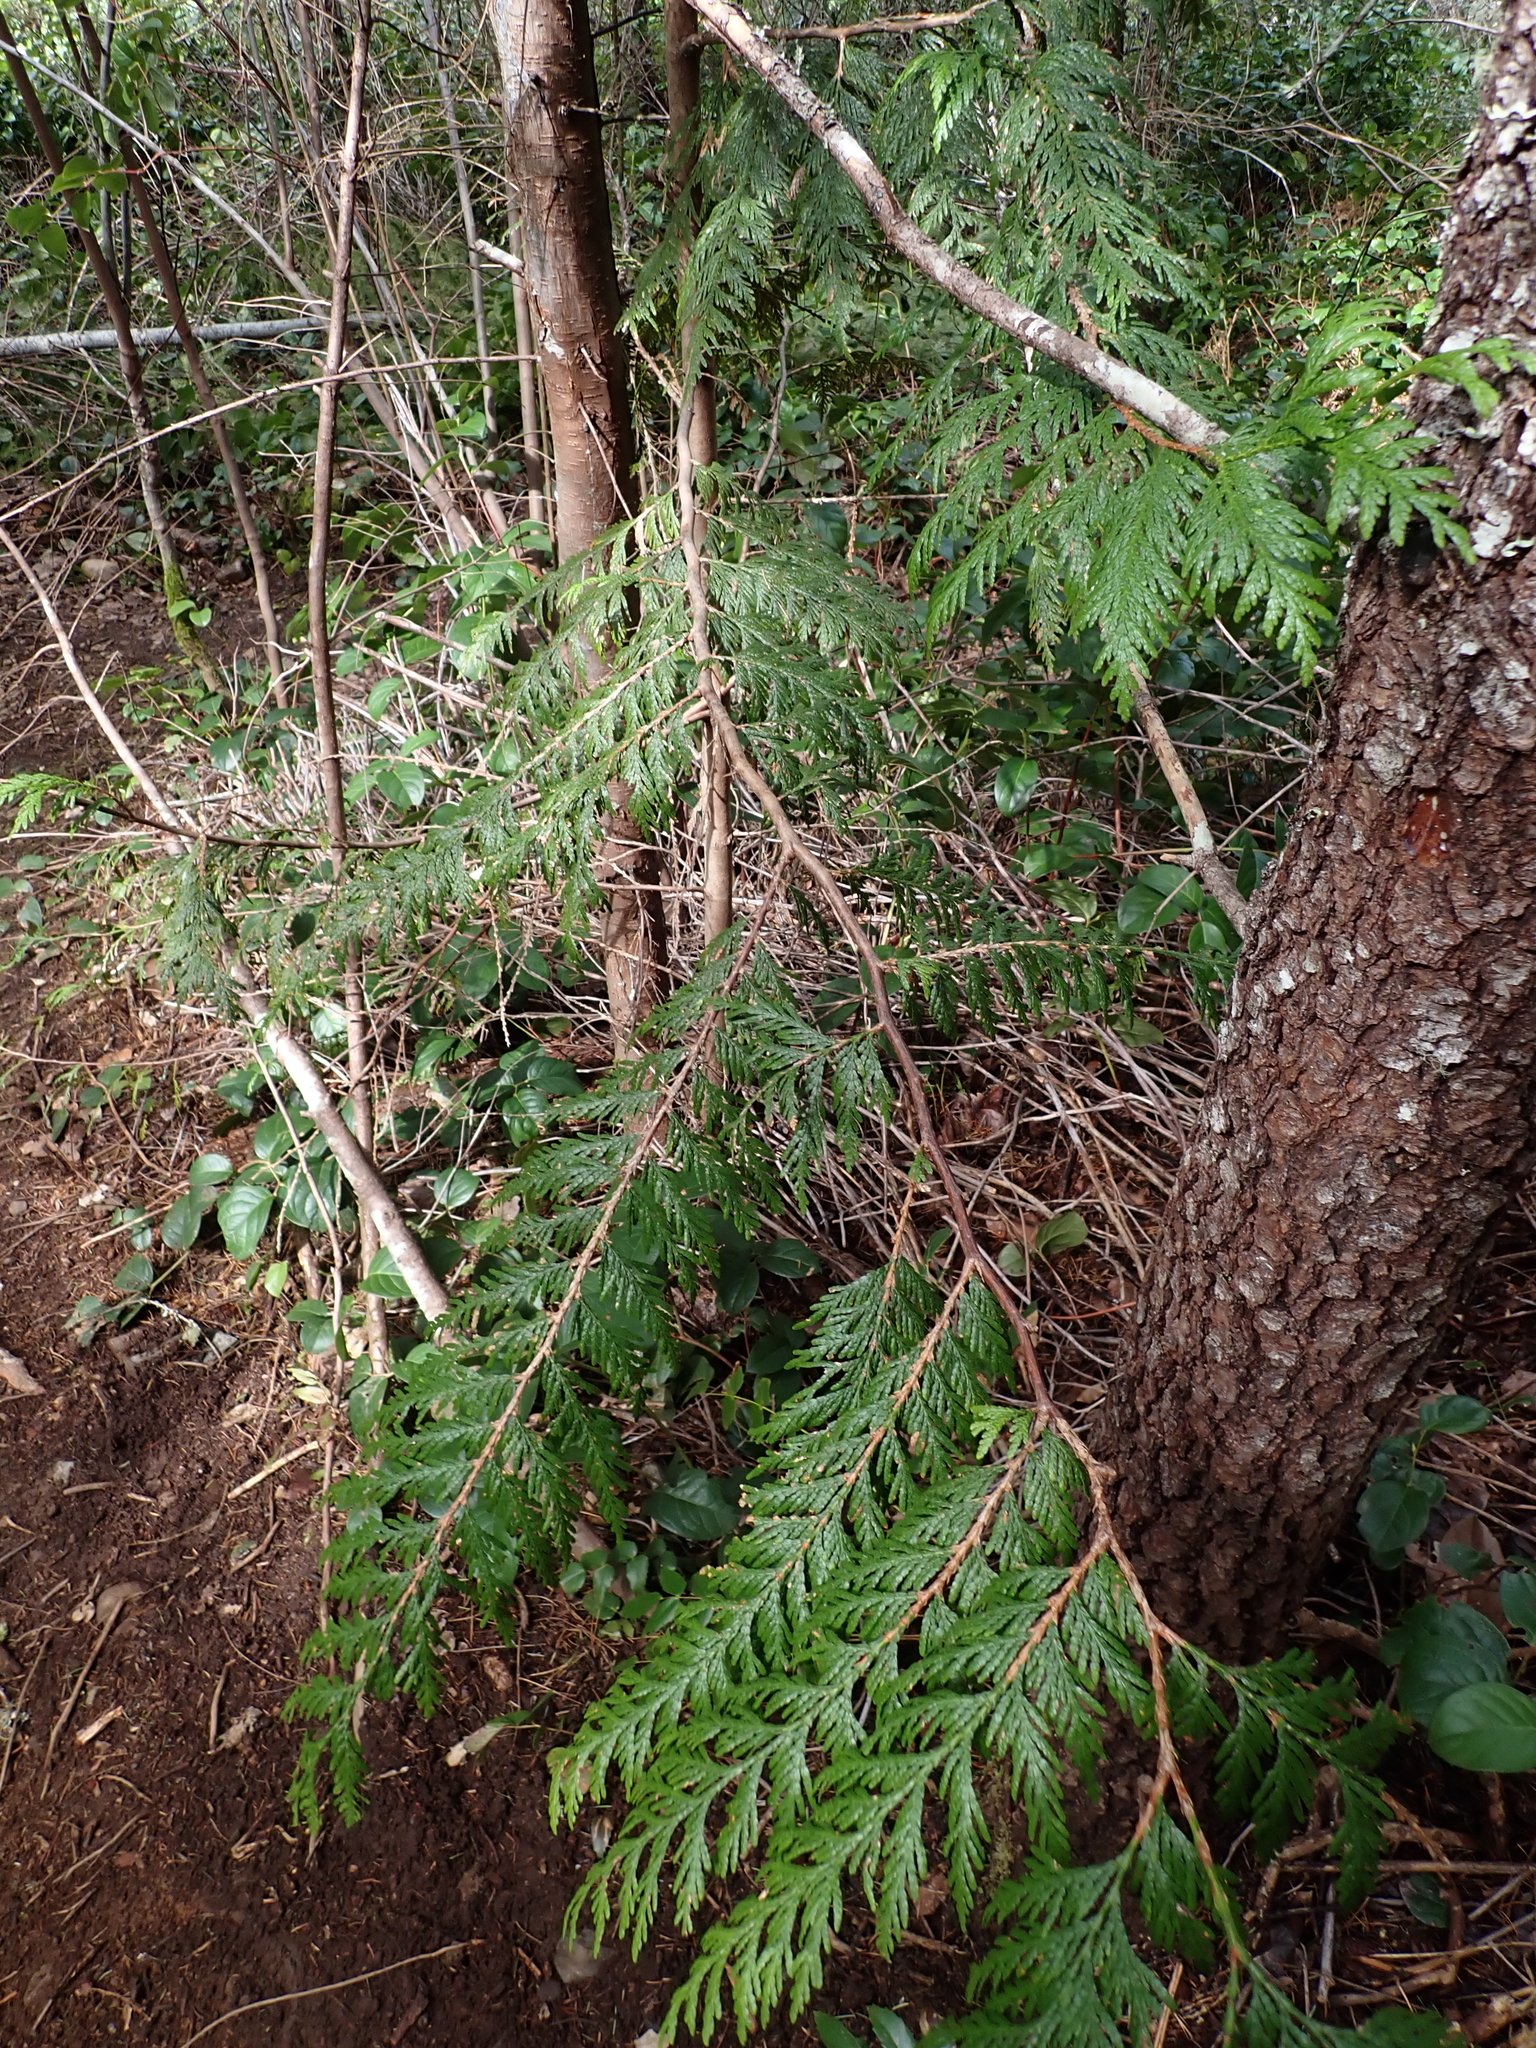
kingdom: Plantae
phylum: Tracheophyta
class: Pinopsida
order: Pinales
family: Cupressaceae
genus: Thuja
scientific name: Thuja plicata
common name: Western red-cedar
